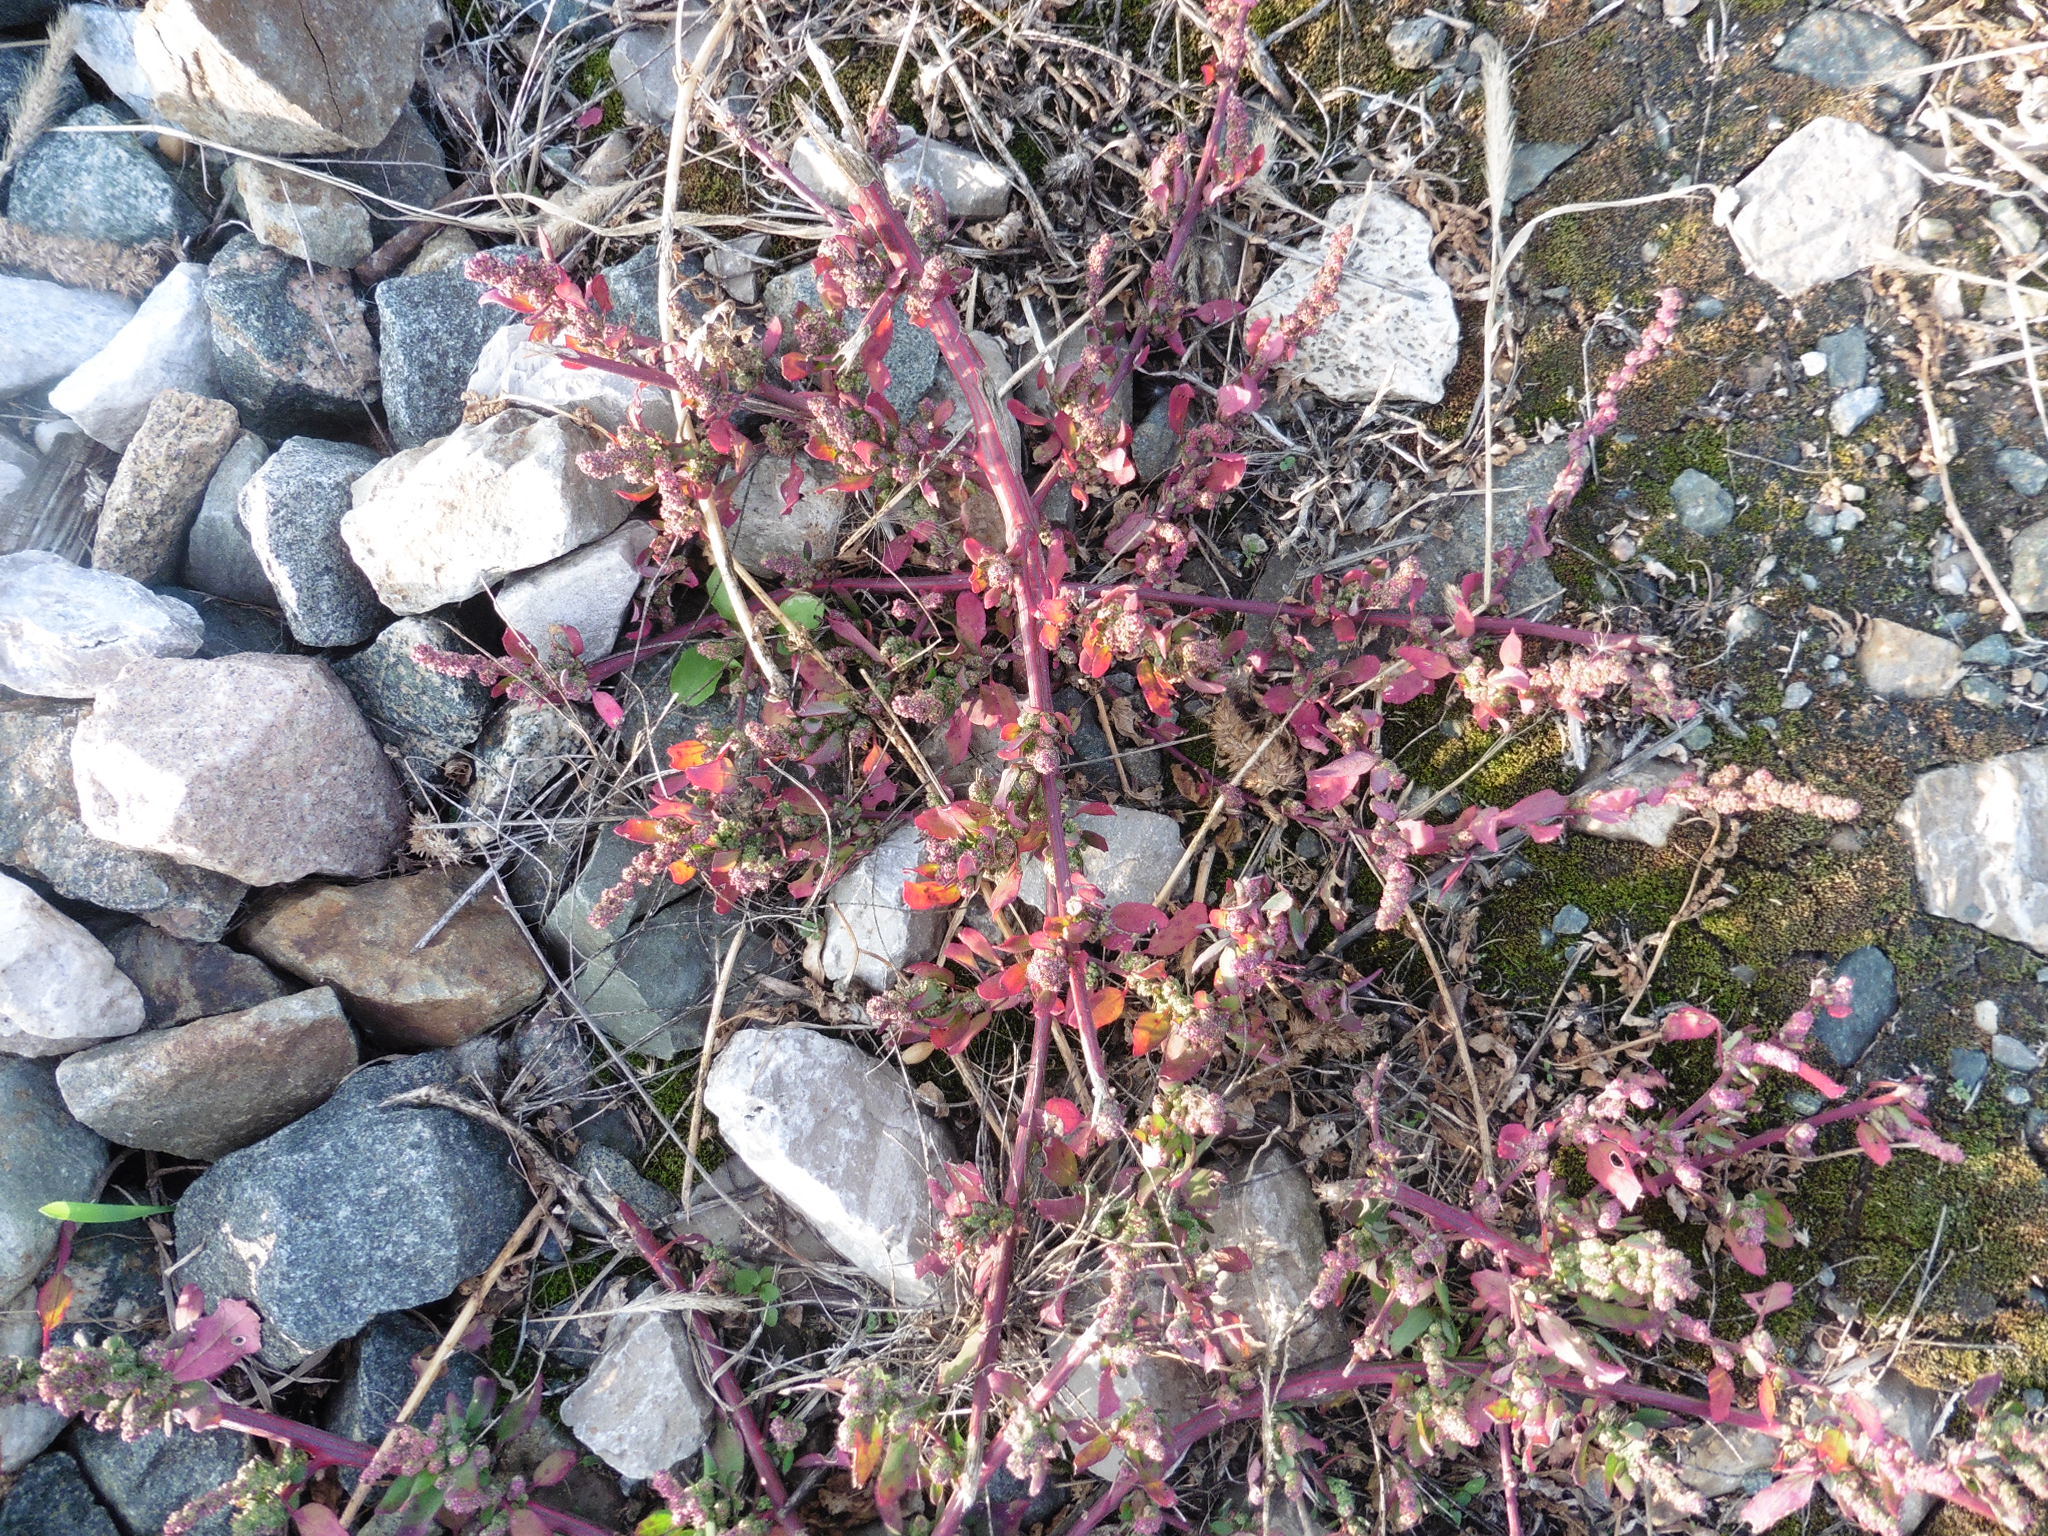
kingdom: Plantae
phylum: Tracheophyta
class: Magnoliopsida
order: Caryophyllales
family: Amaranthaceae
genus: Chenopodium
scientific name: Chenopodium album
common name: Fat-hen
